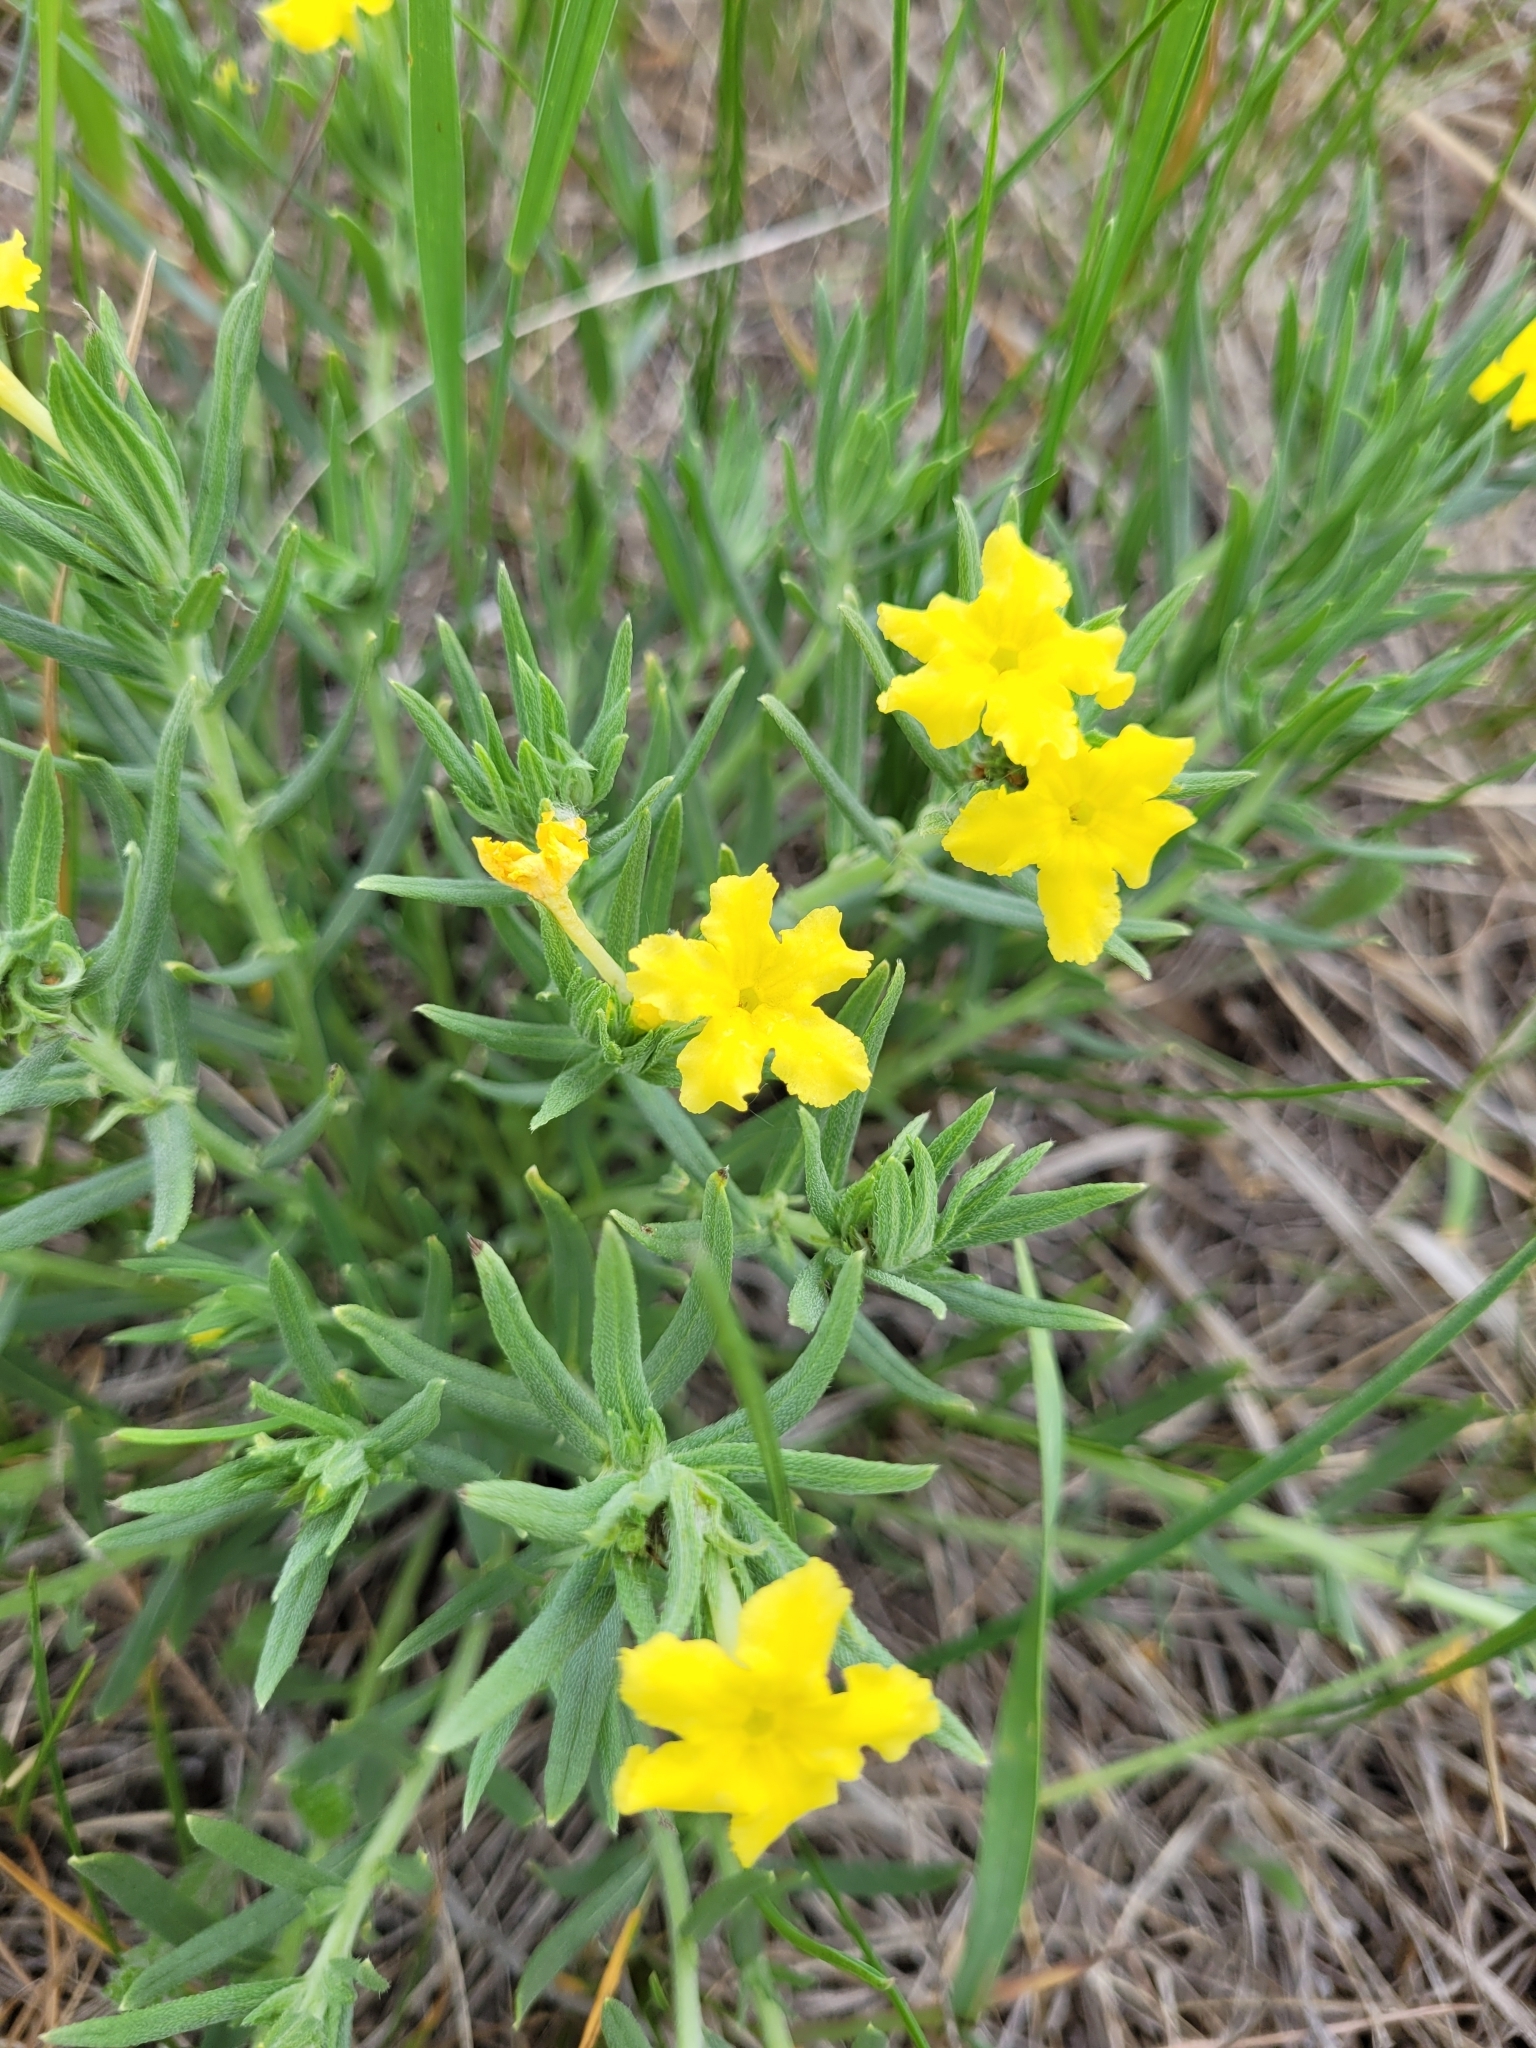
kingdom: Plantae
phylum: Tracheophyta
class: Magnoliopsida
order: Boraginales
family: Boraginaceae
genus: Lithospermum
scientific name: Lithospermum incisum
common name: Fringed gromwell
